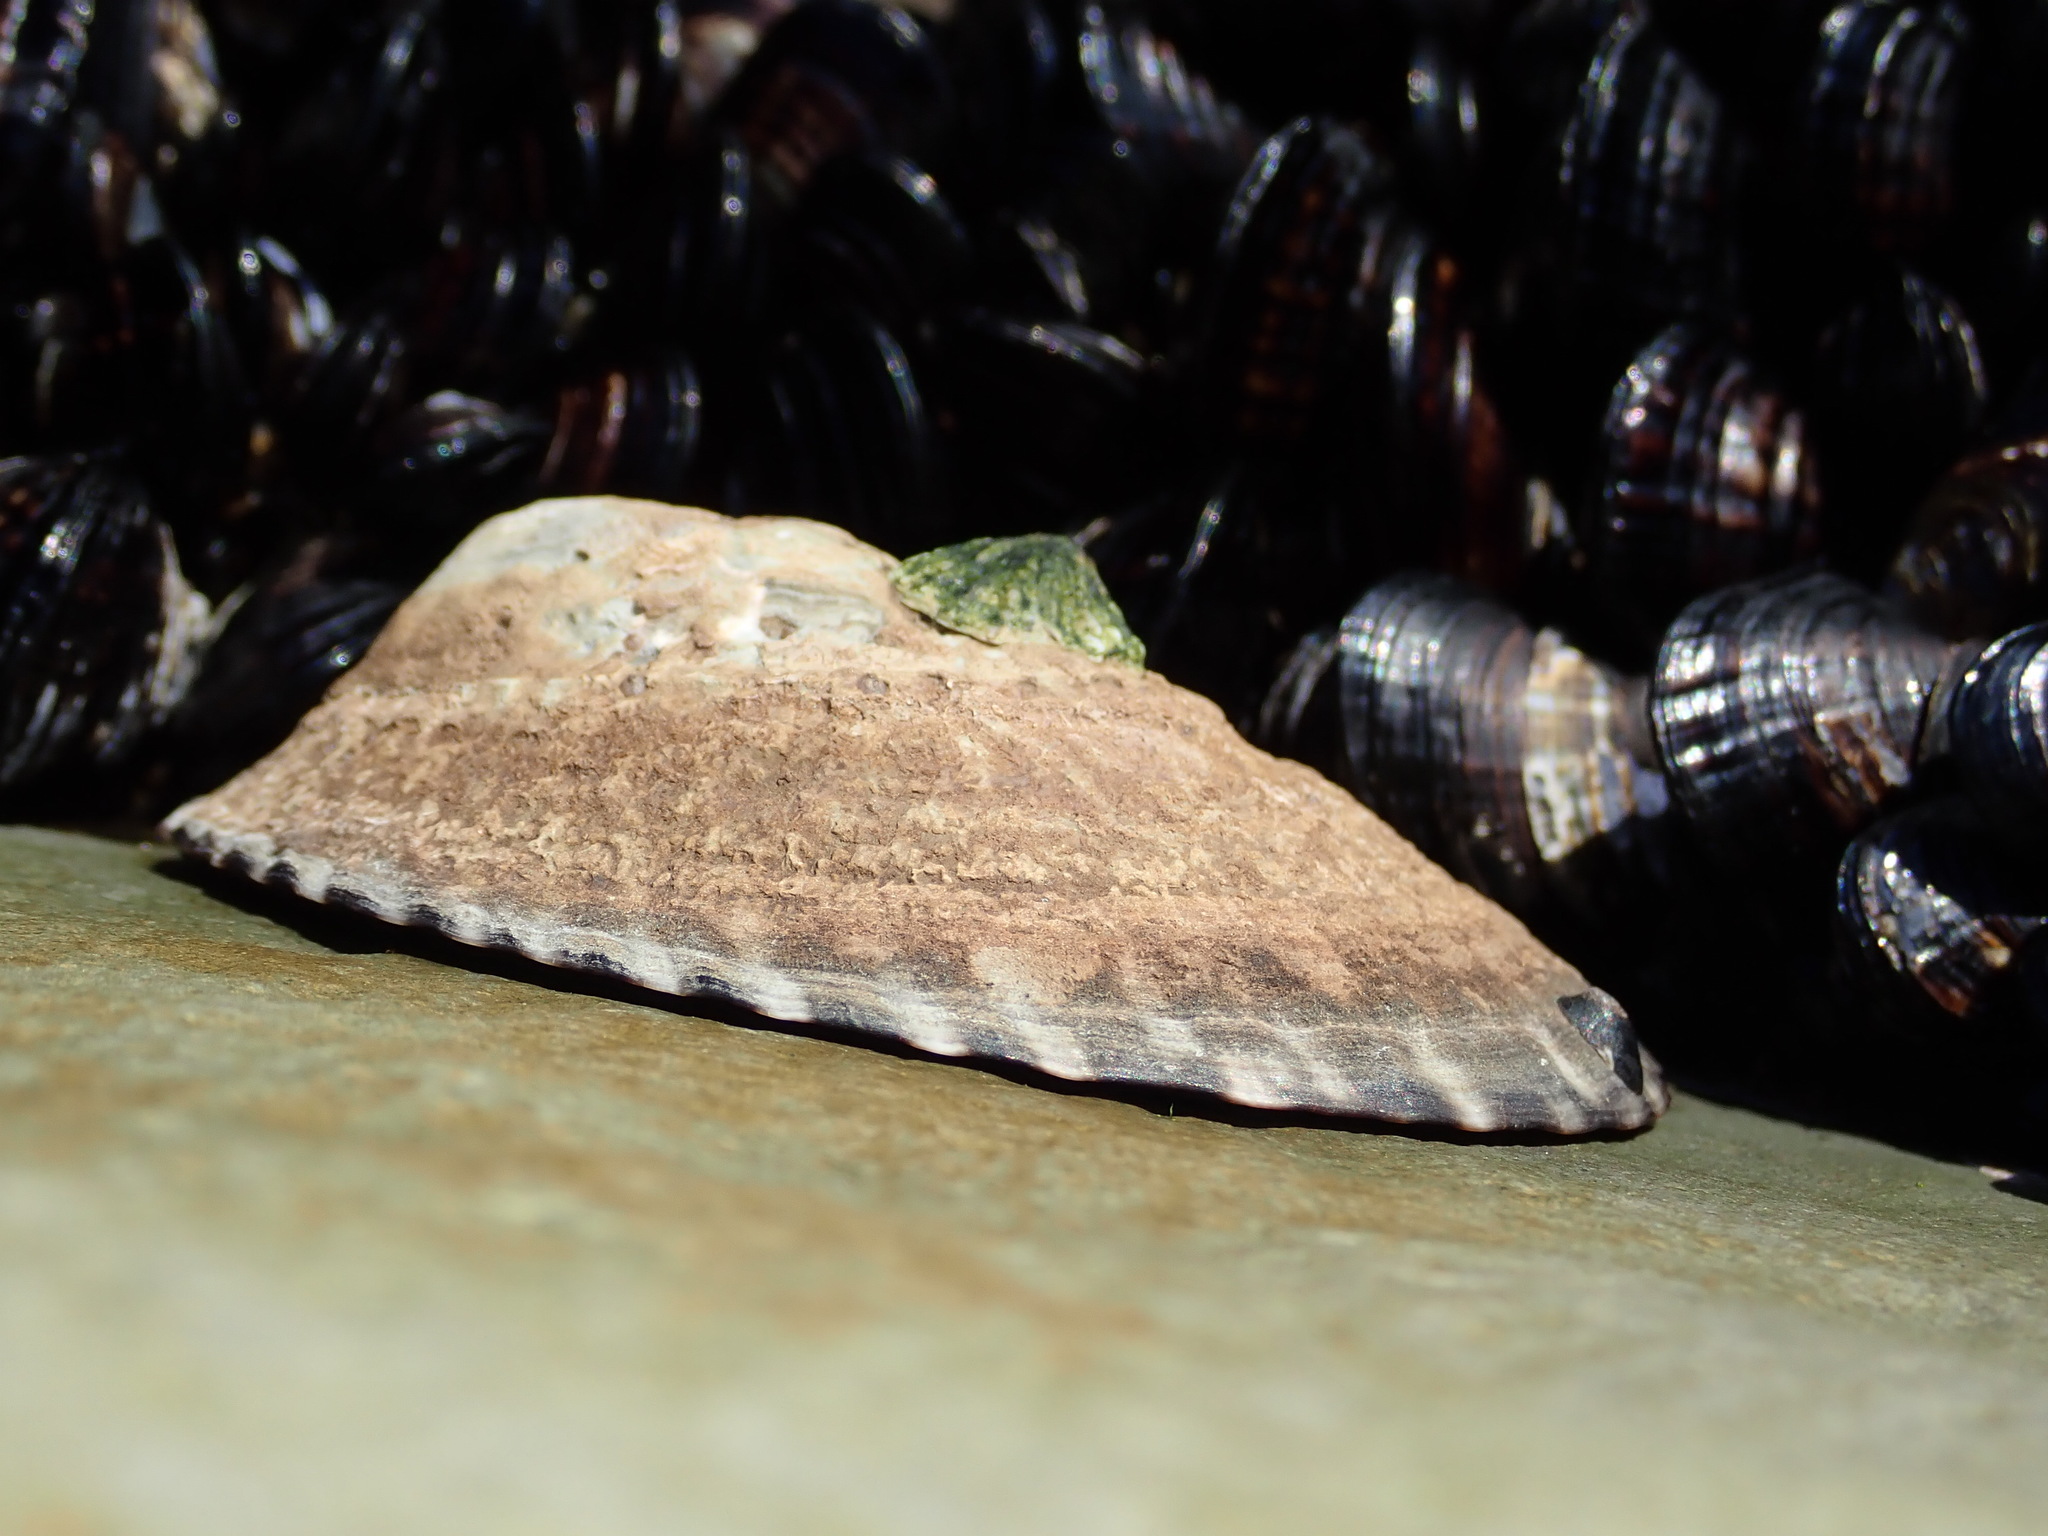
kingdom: Animalia
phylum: Mollusca
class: Gastropoda
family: Lottiidae
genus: Lottia
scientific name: Lottia gigantea
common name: Owl limpet
